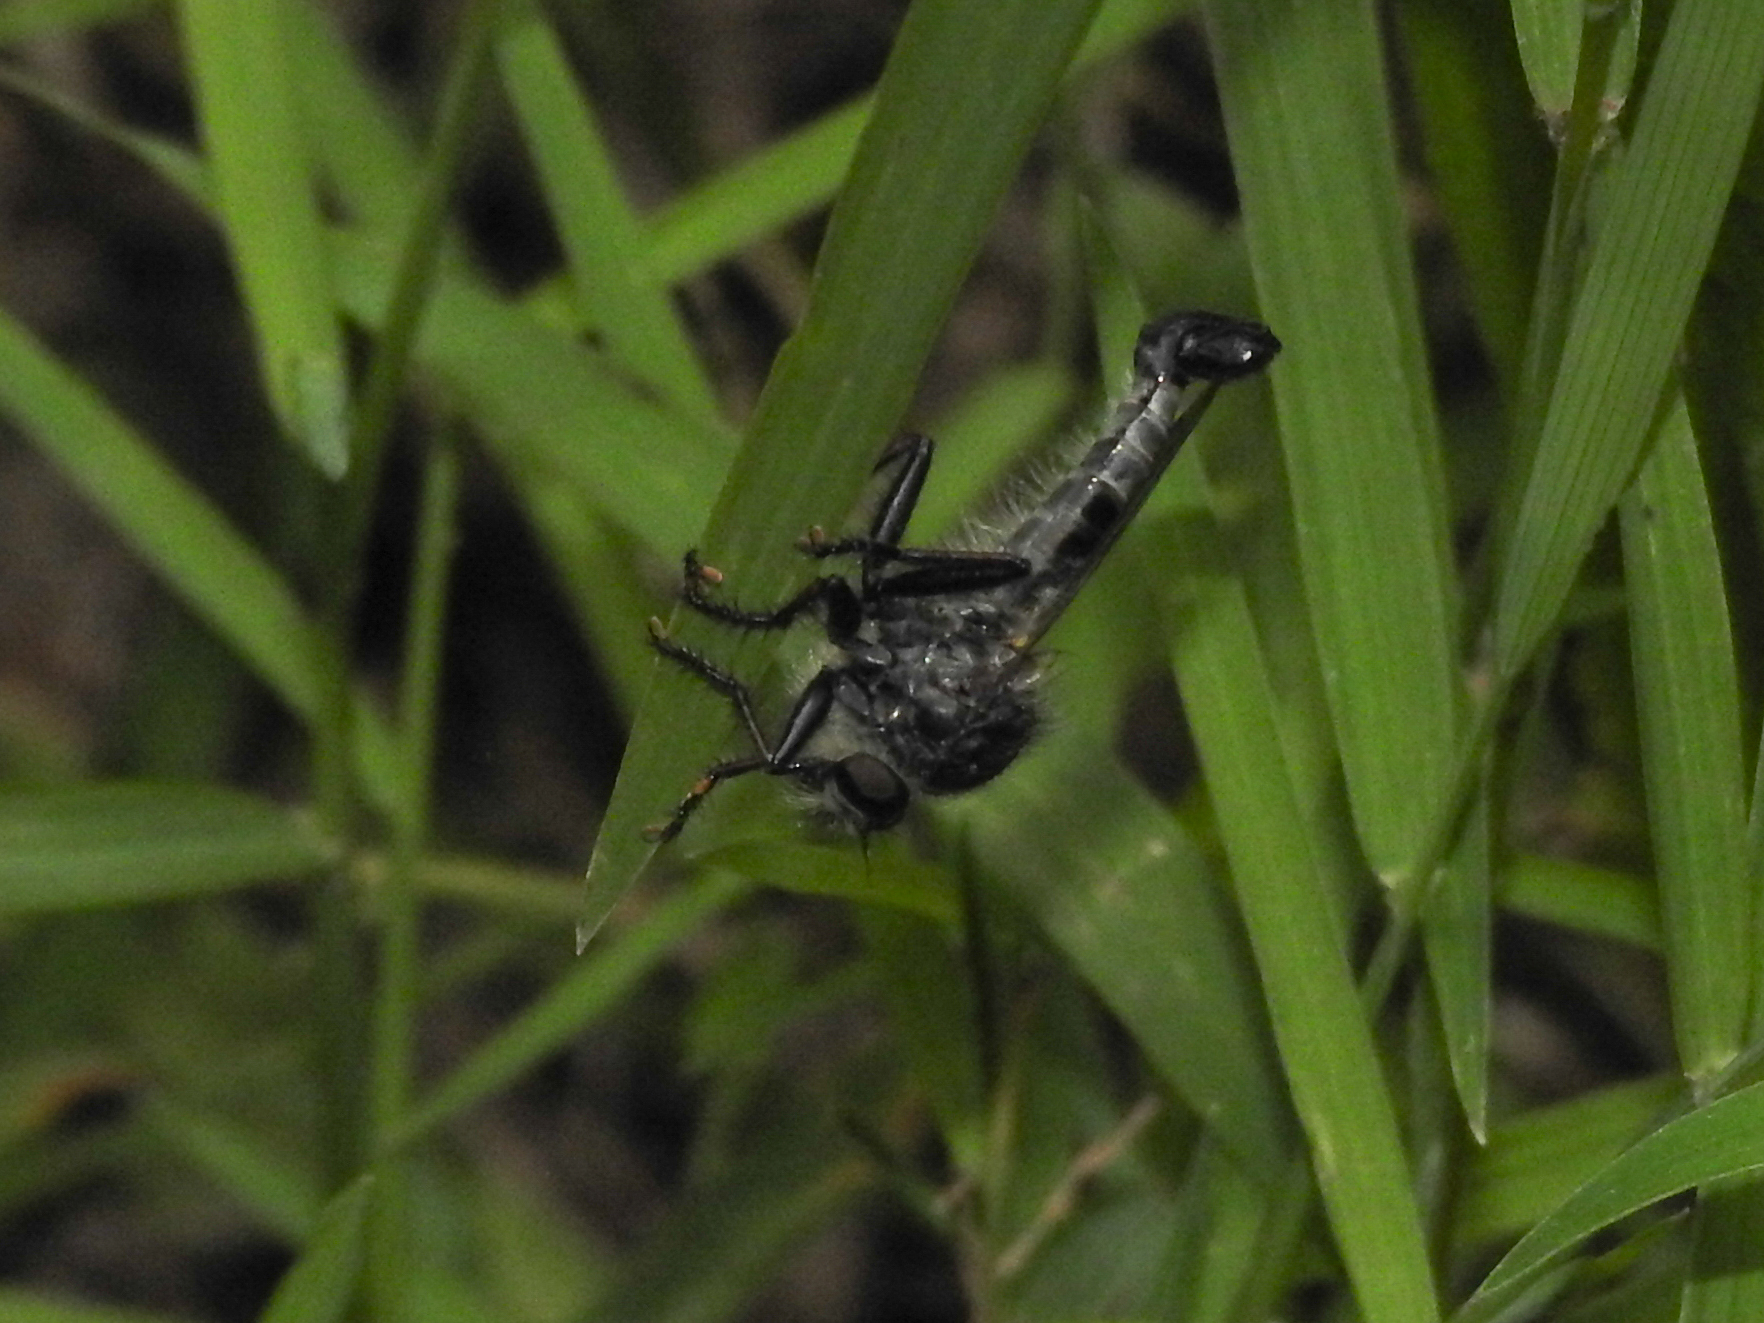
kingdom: Animalia
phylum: Arthropoda
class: Insecta
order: Diptera
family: Asilidae
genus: Efferia
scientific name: Efferia aestuans
